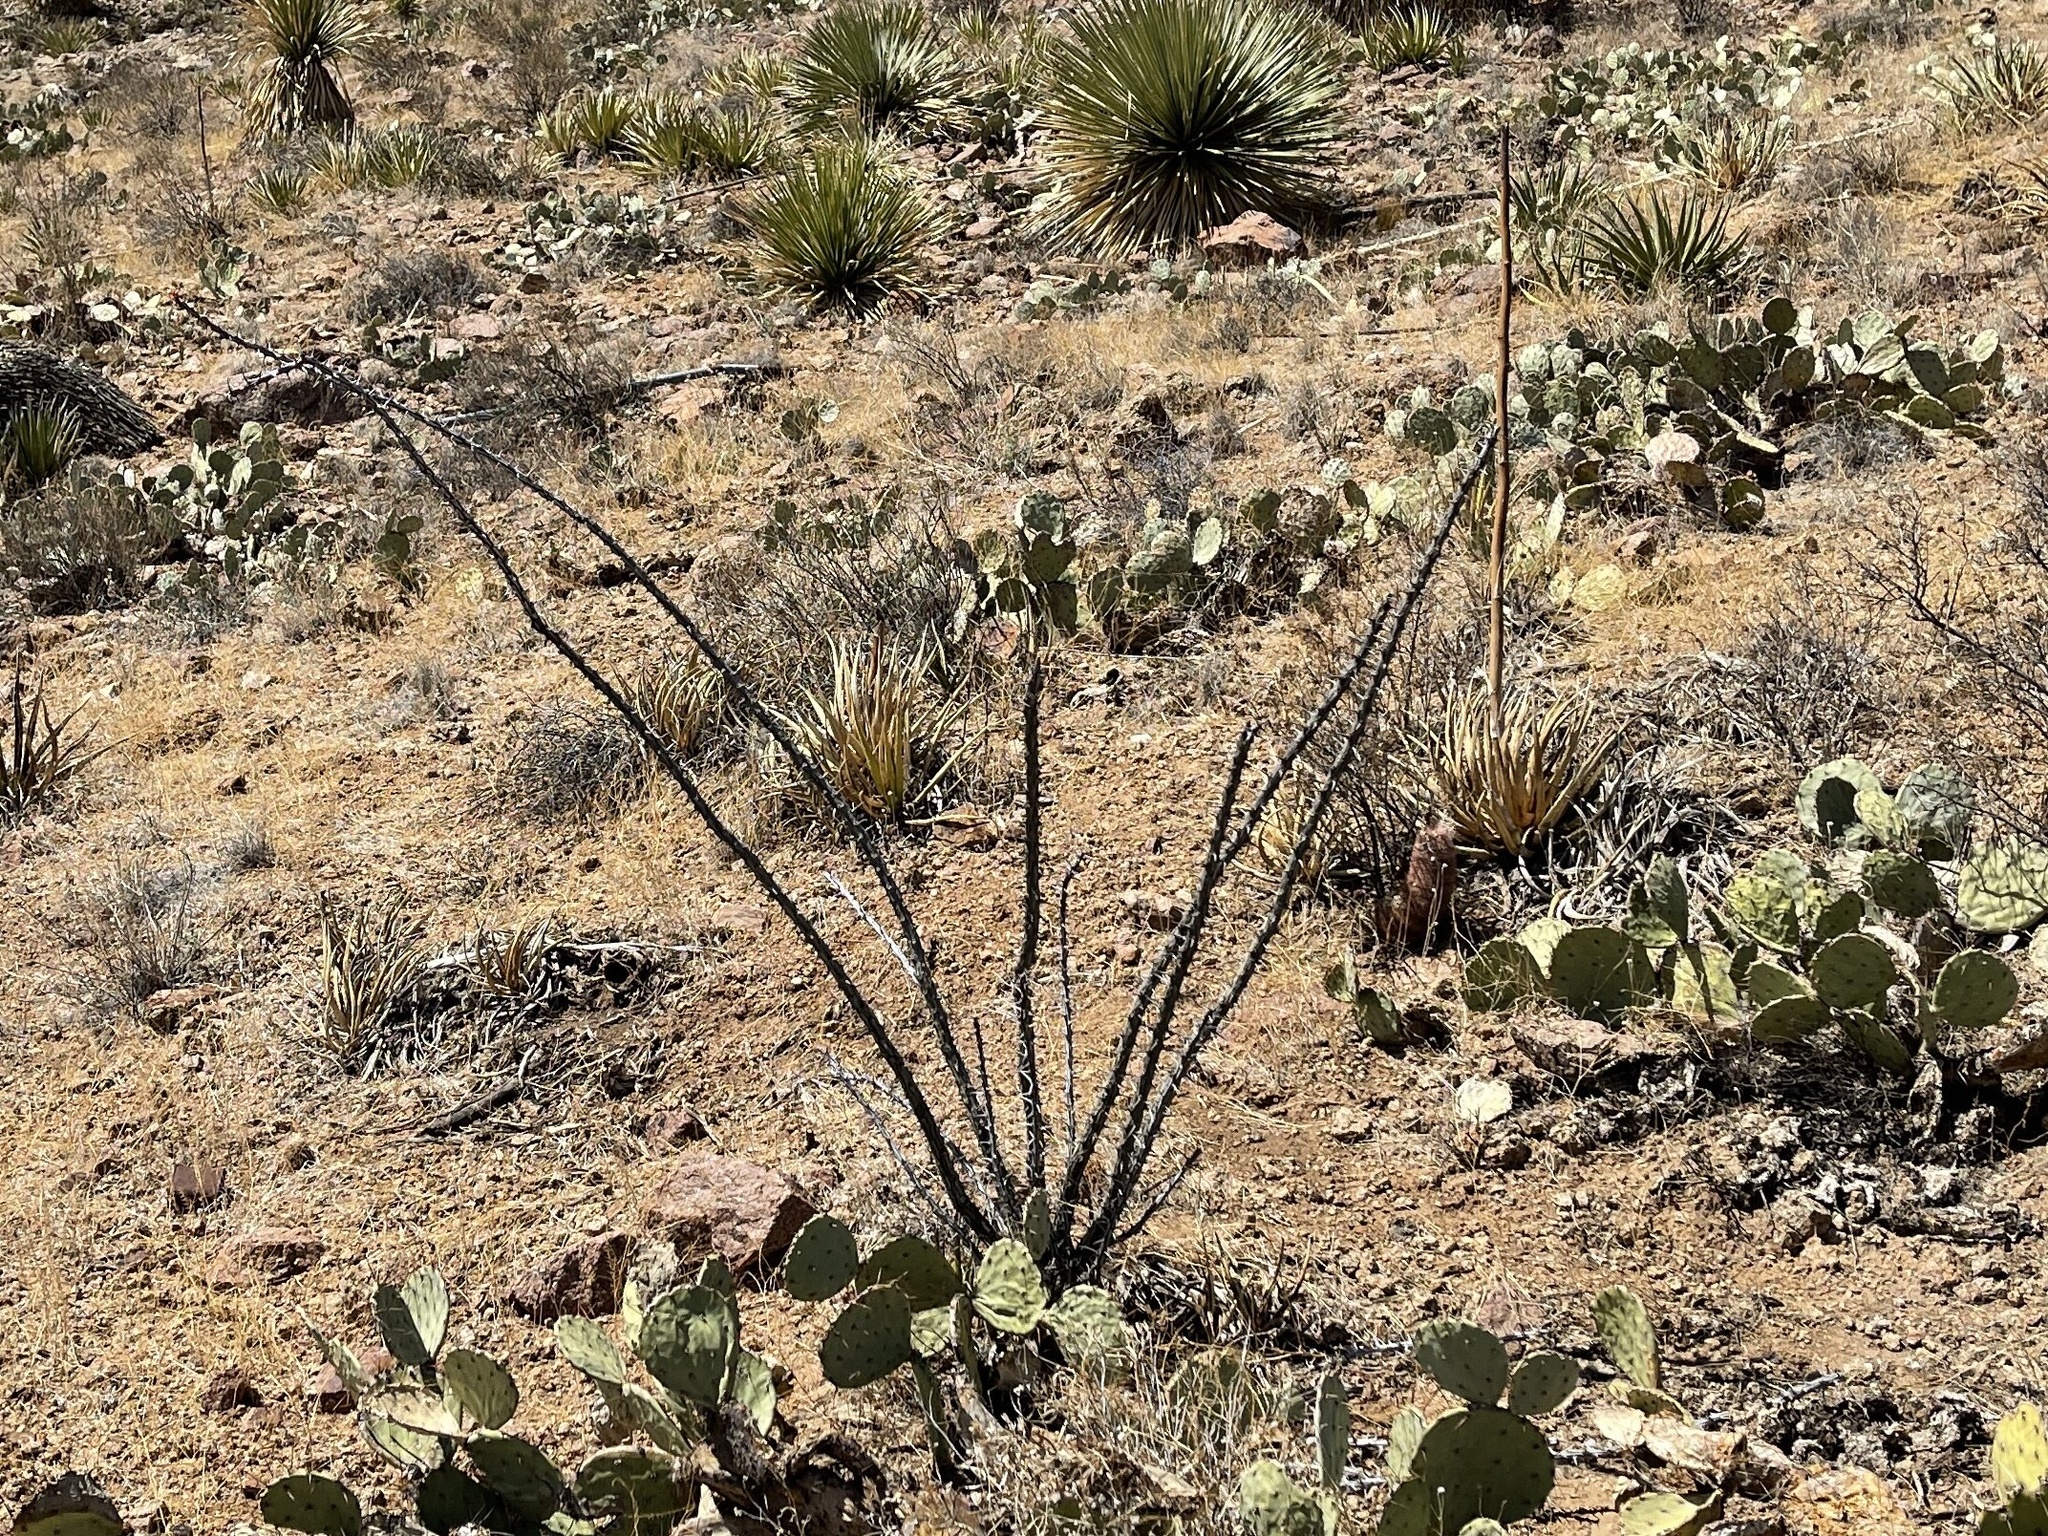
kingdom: Plantae
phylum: Tracheophyta
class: Magnoliopsida
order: Ericales
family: Fouquieriaceae
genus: Fouquieria
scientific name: Fouquieria splendens
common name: Vine-cactus
